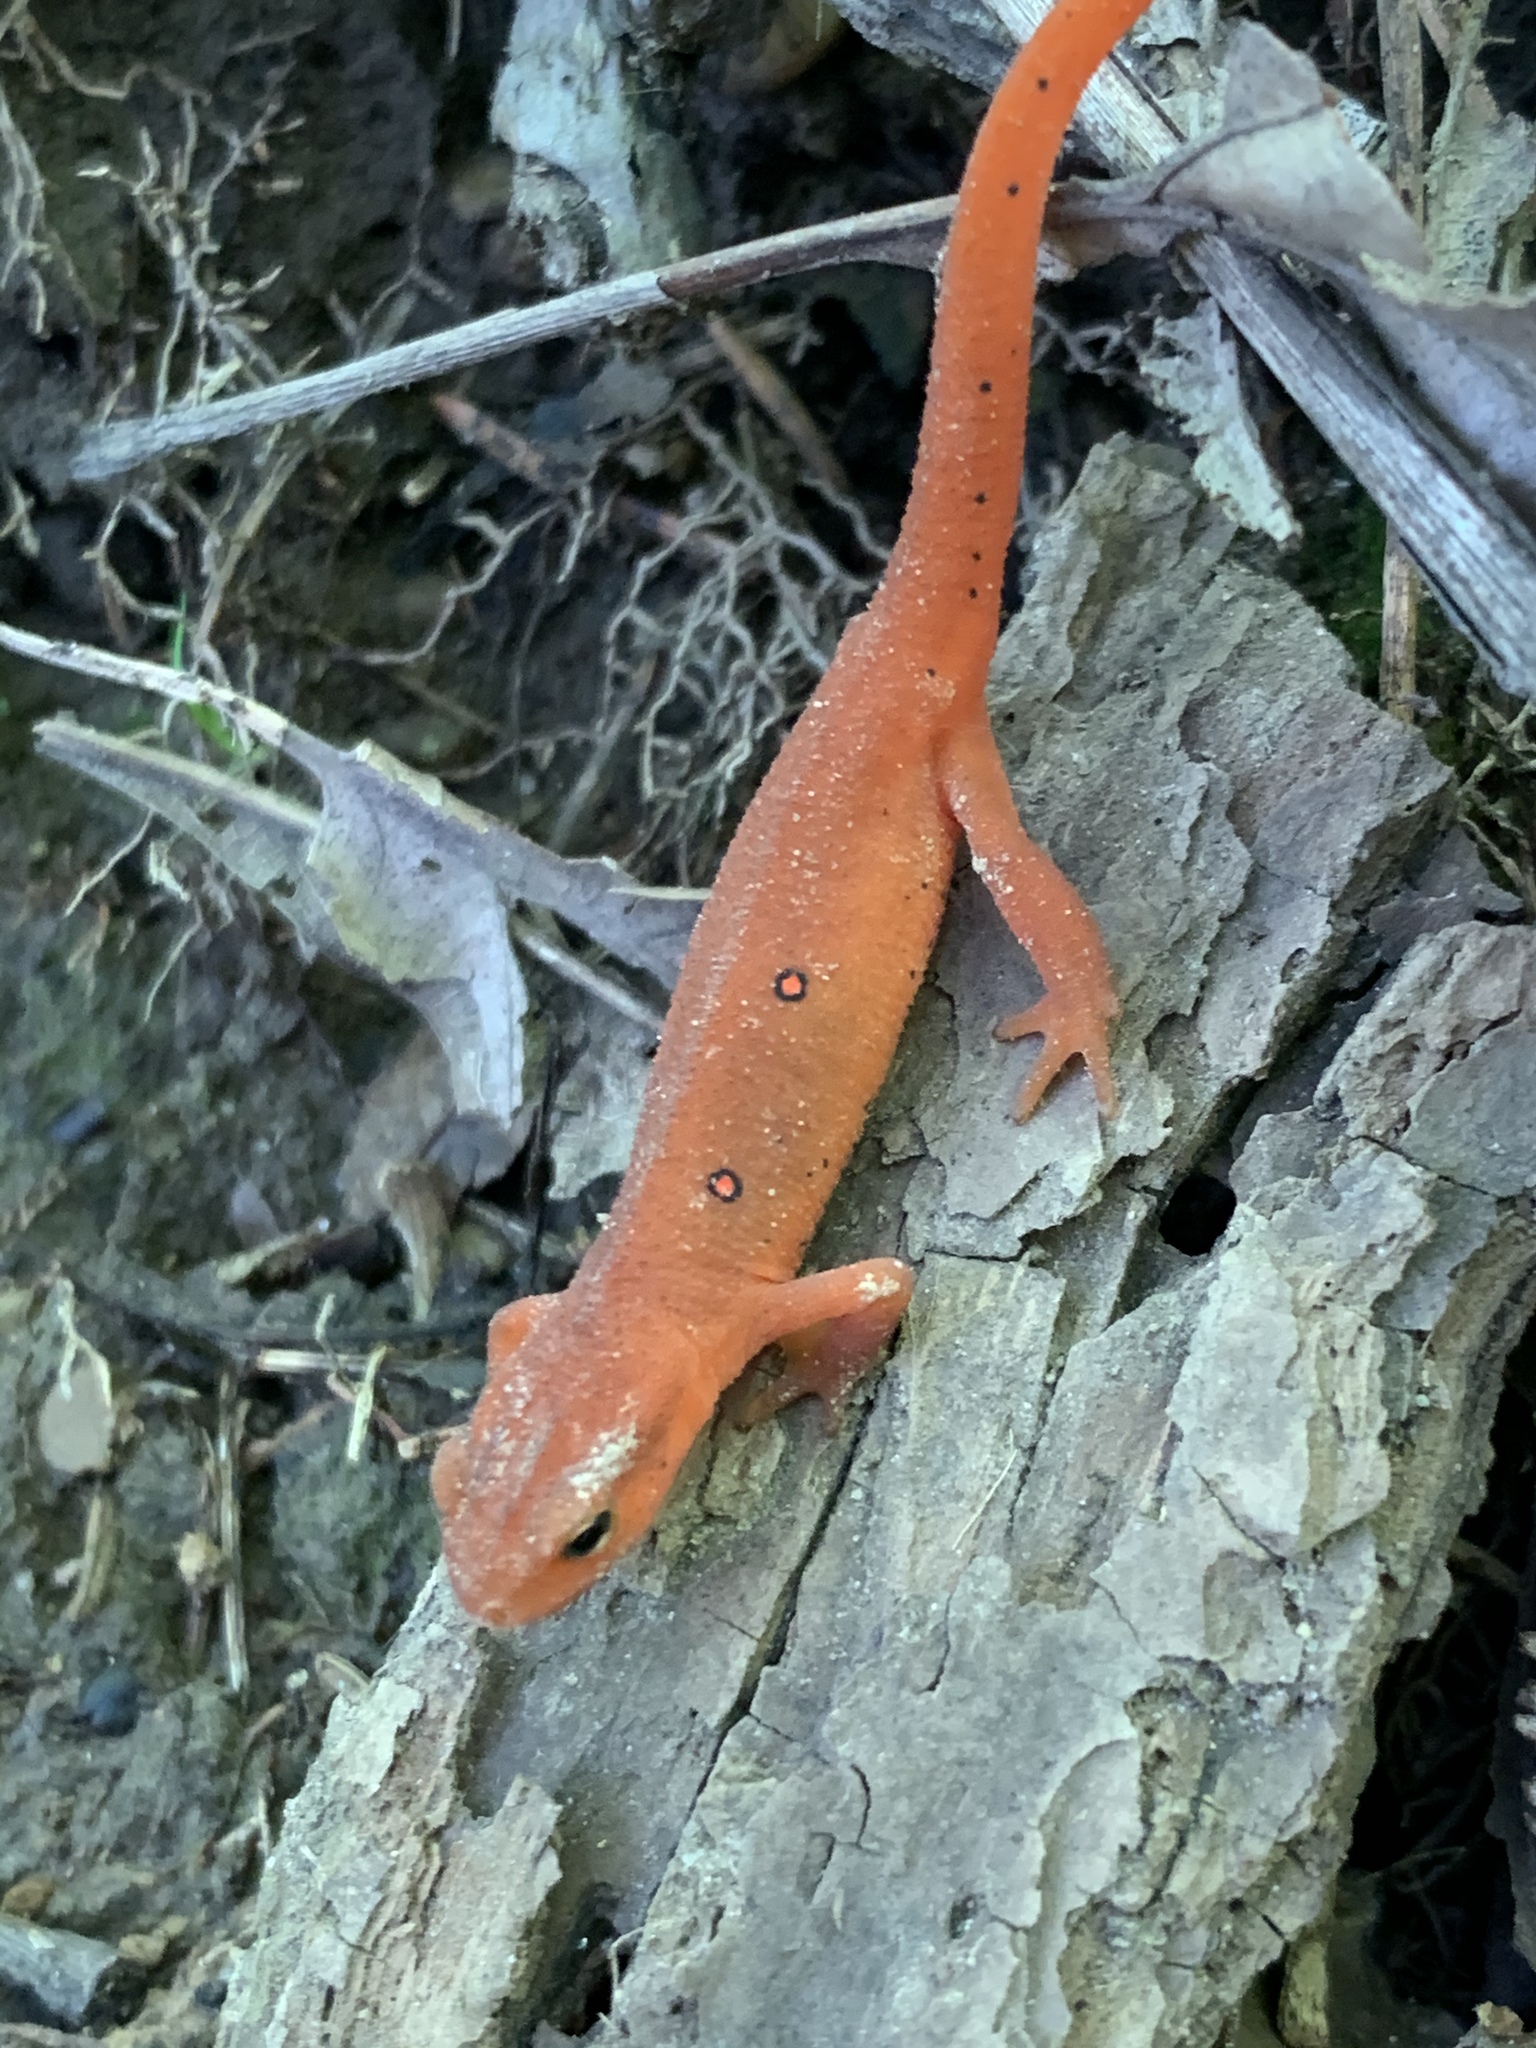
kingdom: Animalia
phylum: Chordata
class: Amphibia
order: Caudata
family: Salamandridae
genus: Notophthalmus
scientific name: Notophthalmus viridescens
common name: Eastern newt
